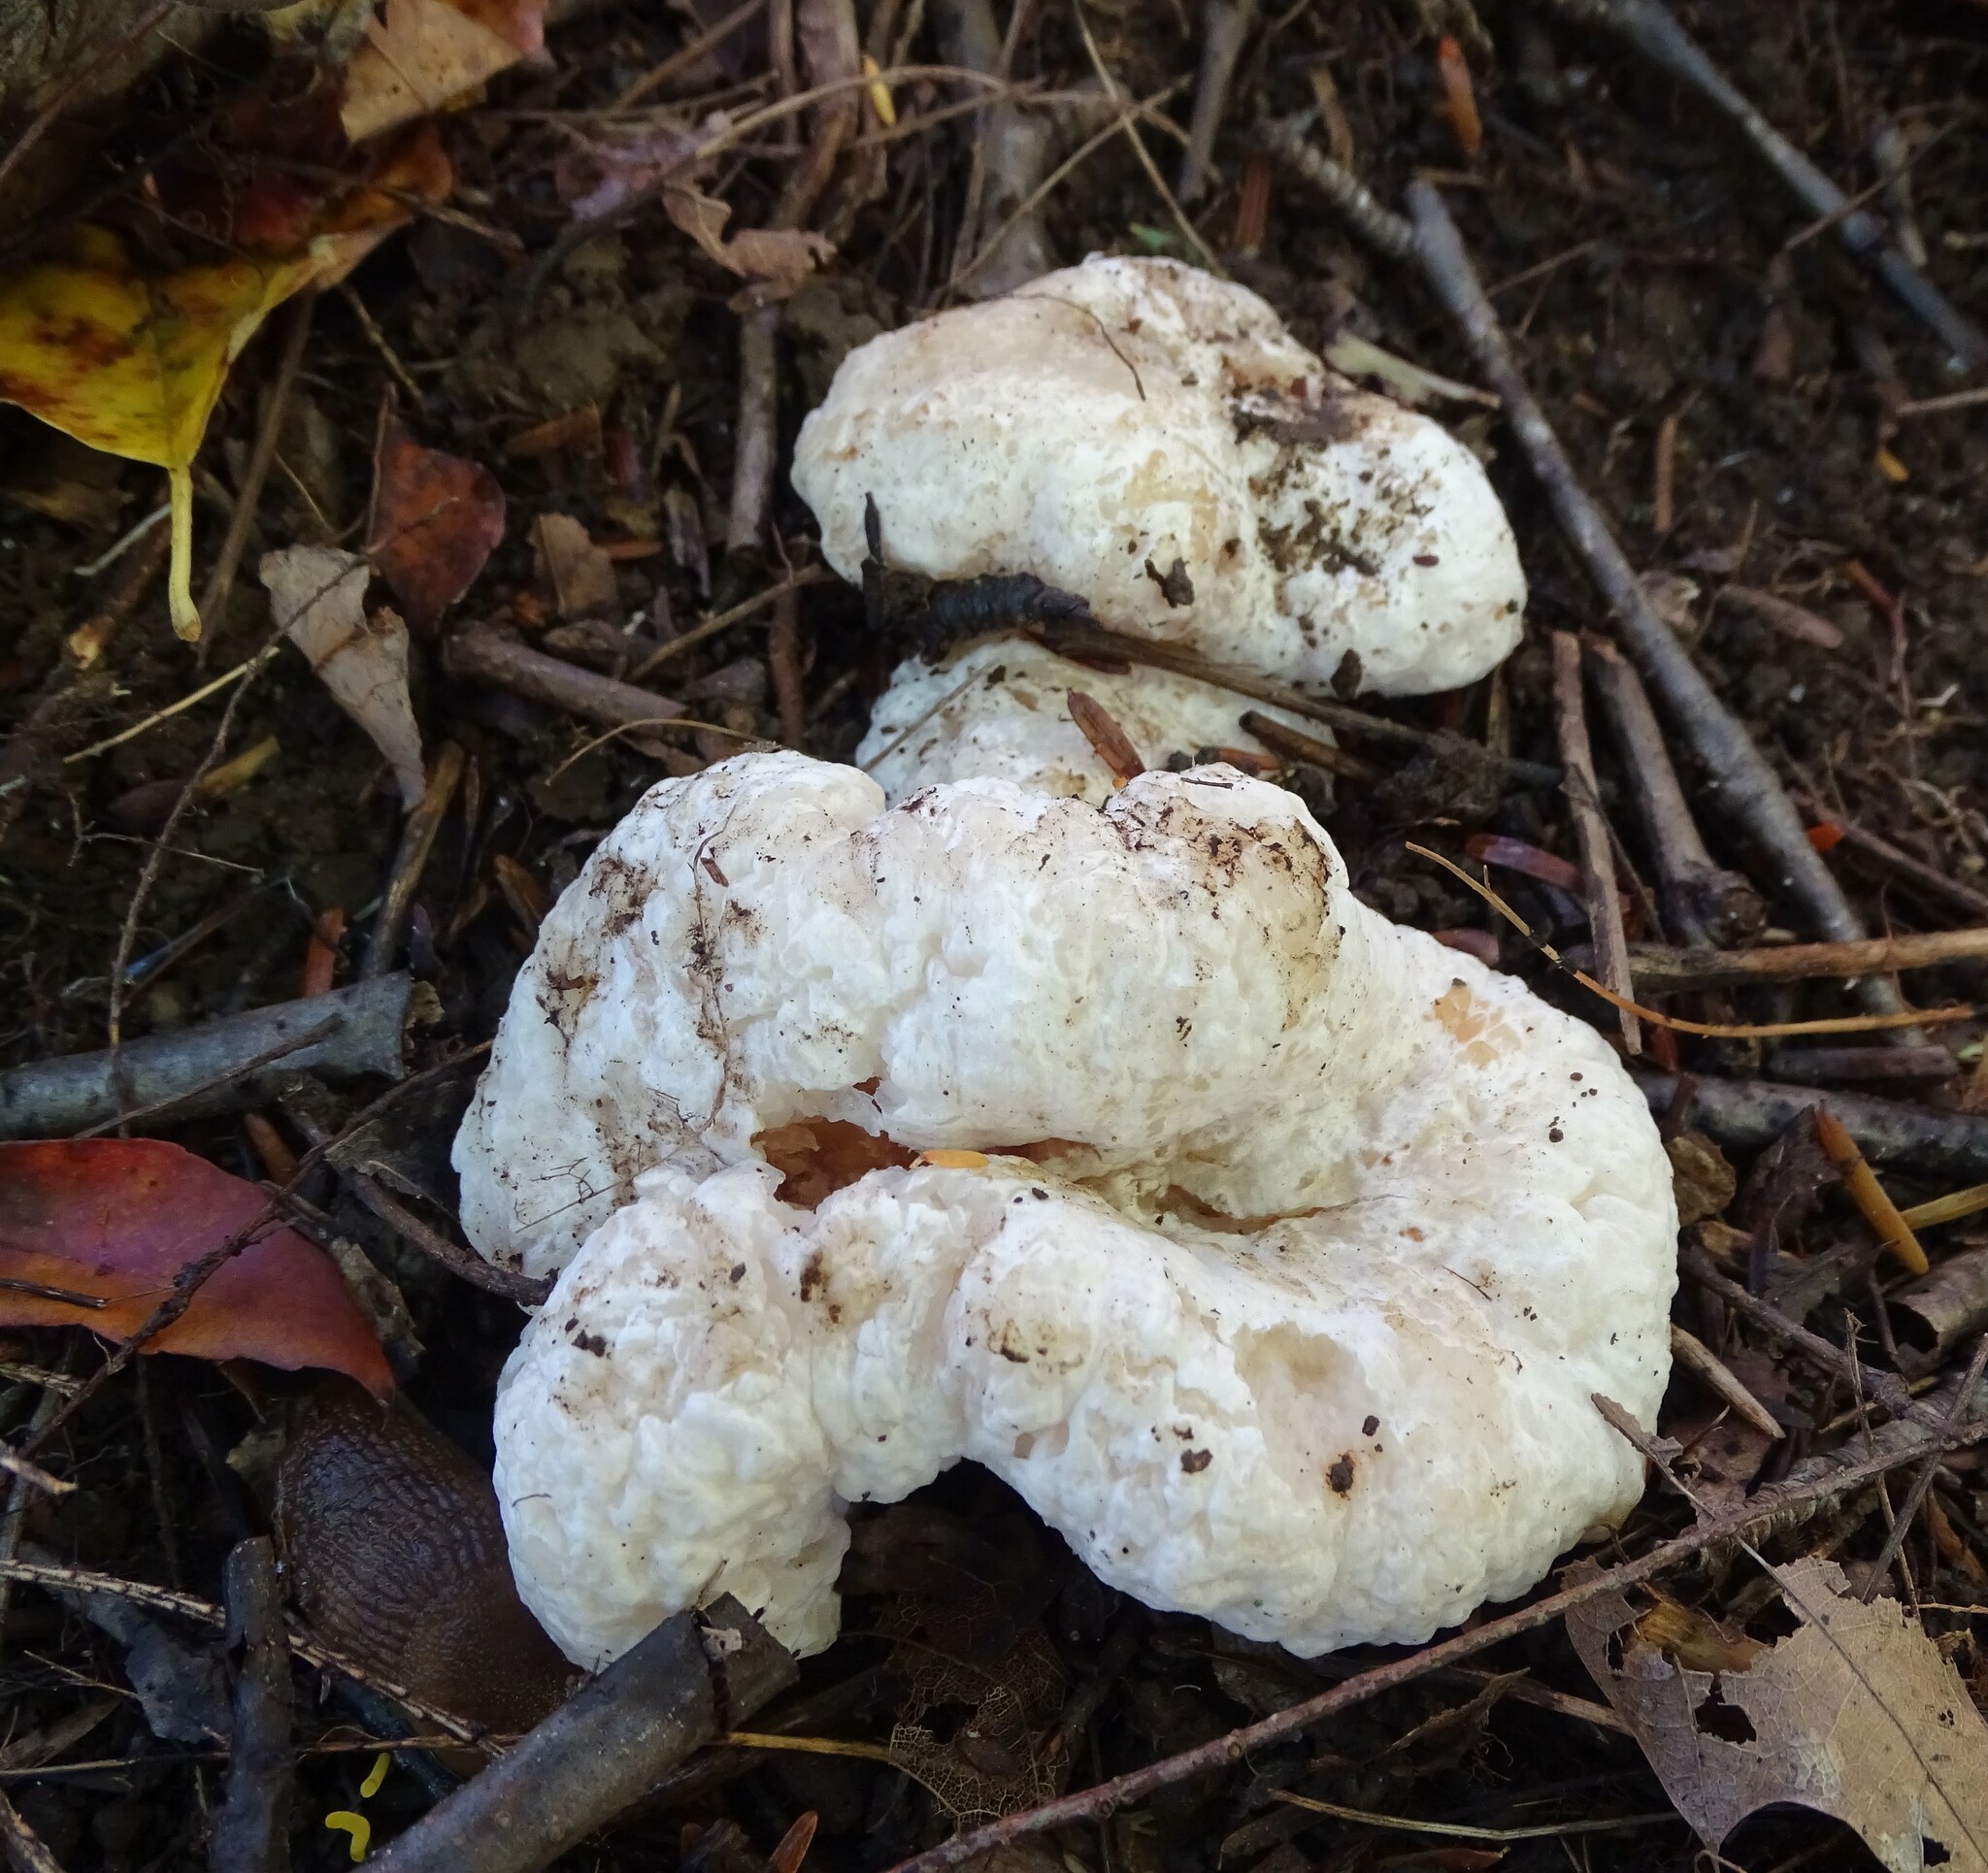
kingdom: Fungi
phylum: Basidiomycota
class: Agaricomycetes
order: Agaricales
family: Entolomataceae
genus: Entoloma
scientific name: Entoloma abortivum
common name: Aborted entoloma
